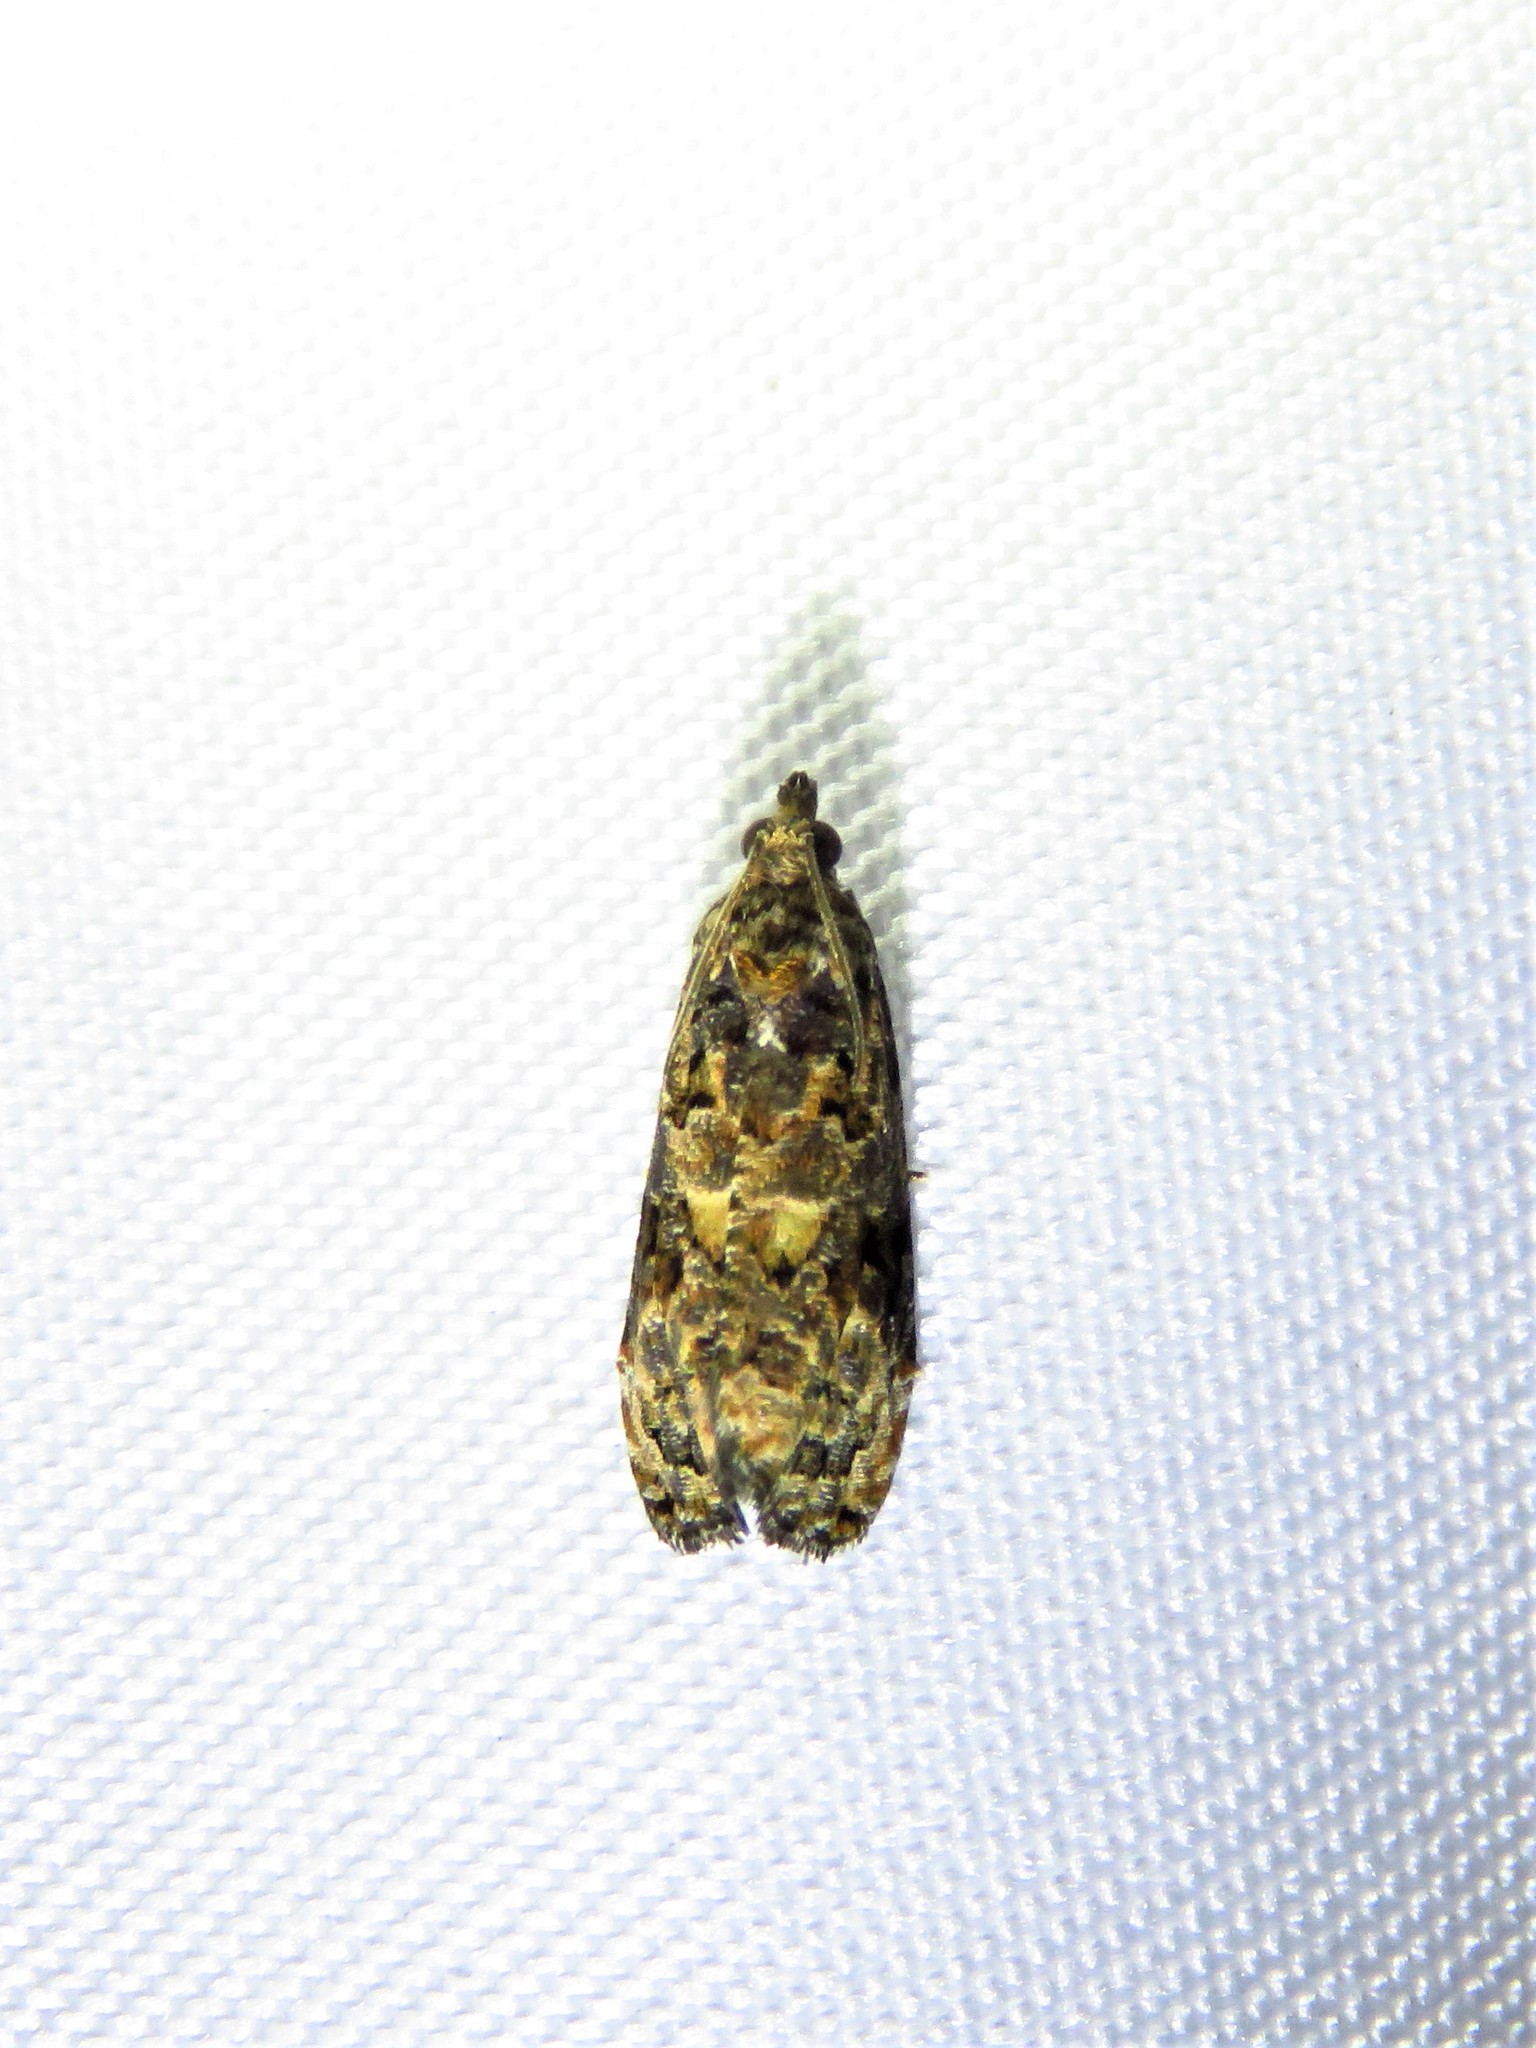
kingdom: Animalia
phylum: Arthropoda
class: Insecta
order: Lepidoptera
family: Tortricidae
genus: Endothenia
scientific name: Endothenia hebesana
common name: Verbena bud moth
